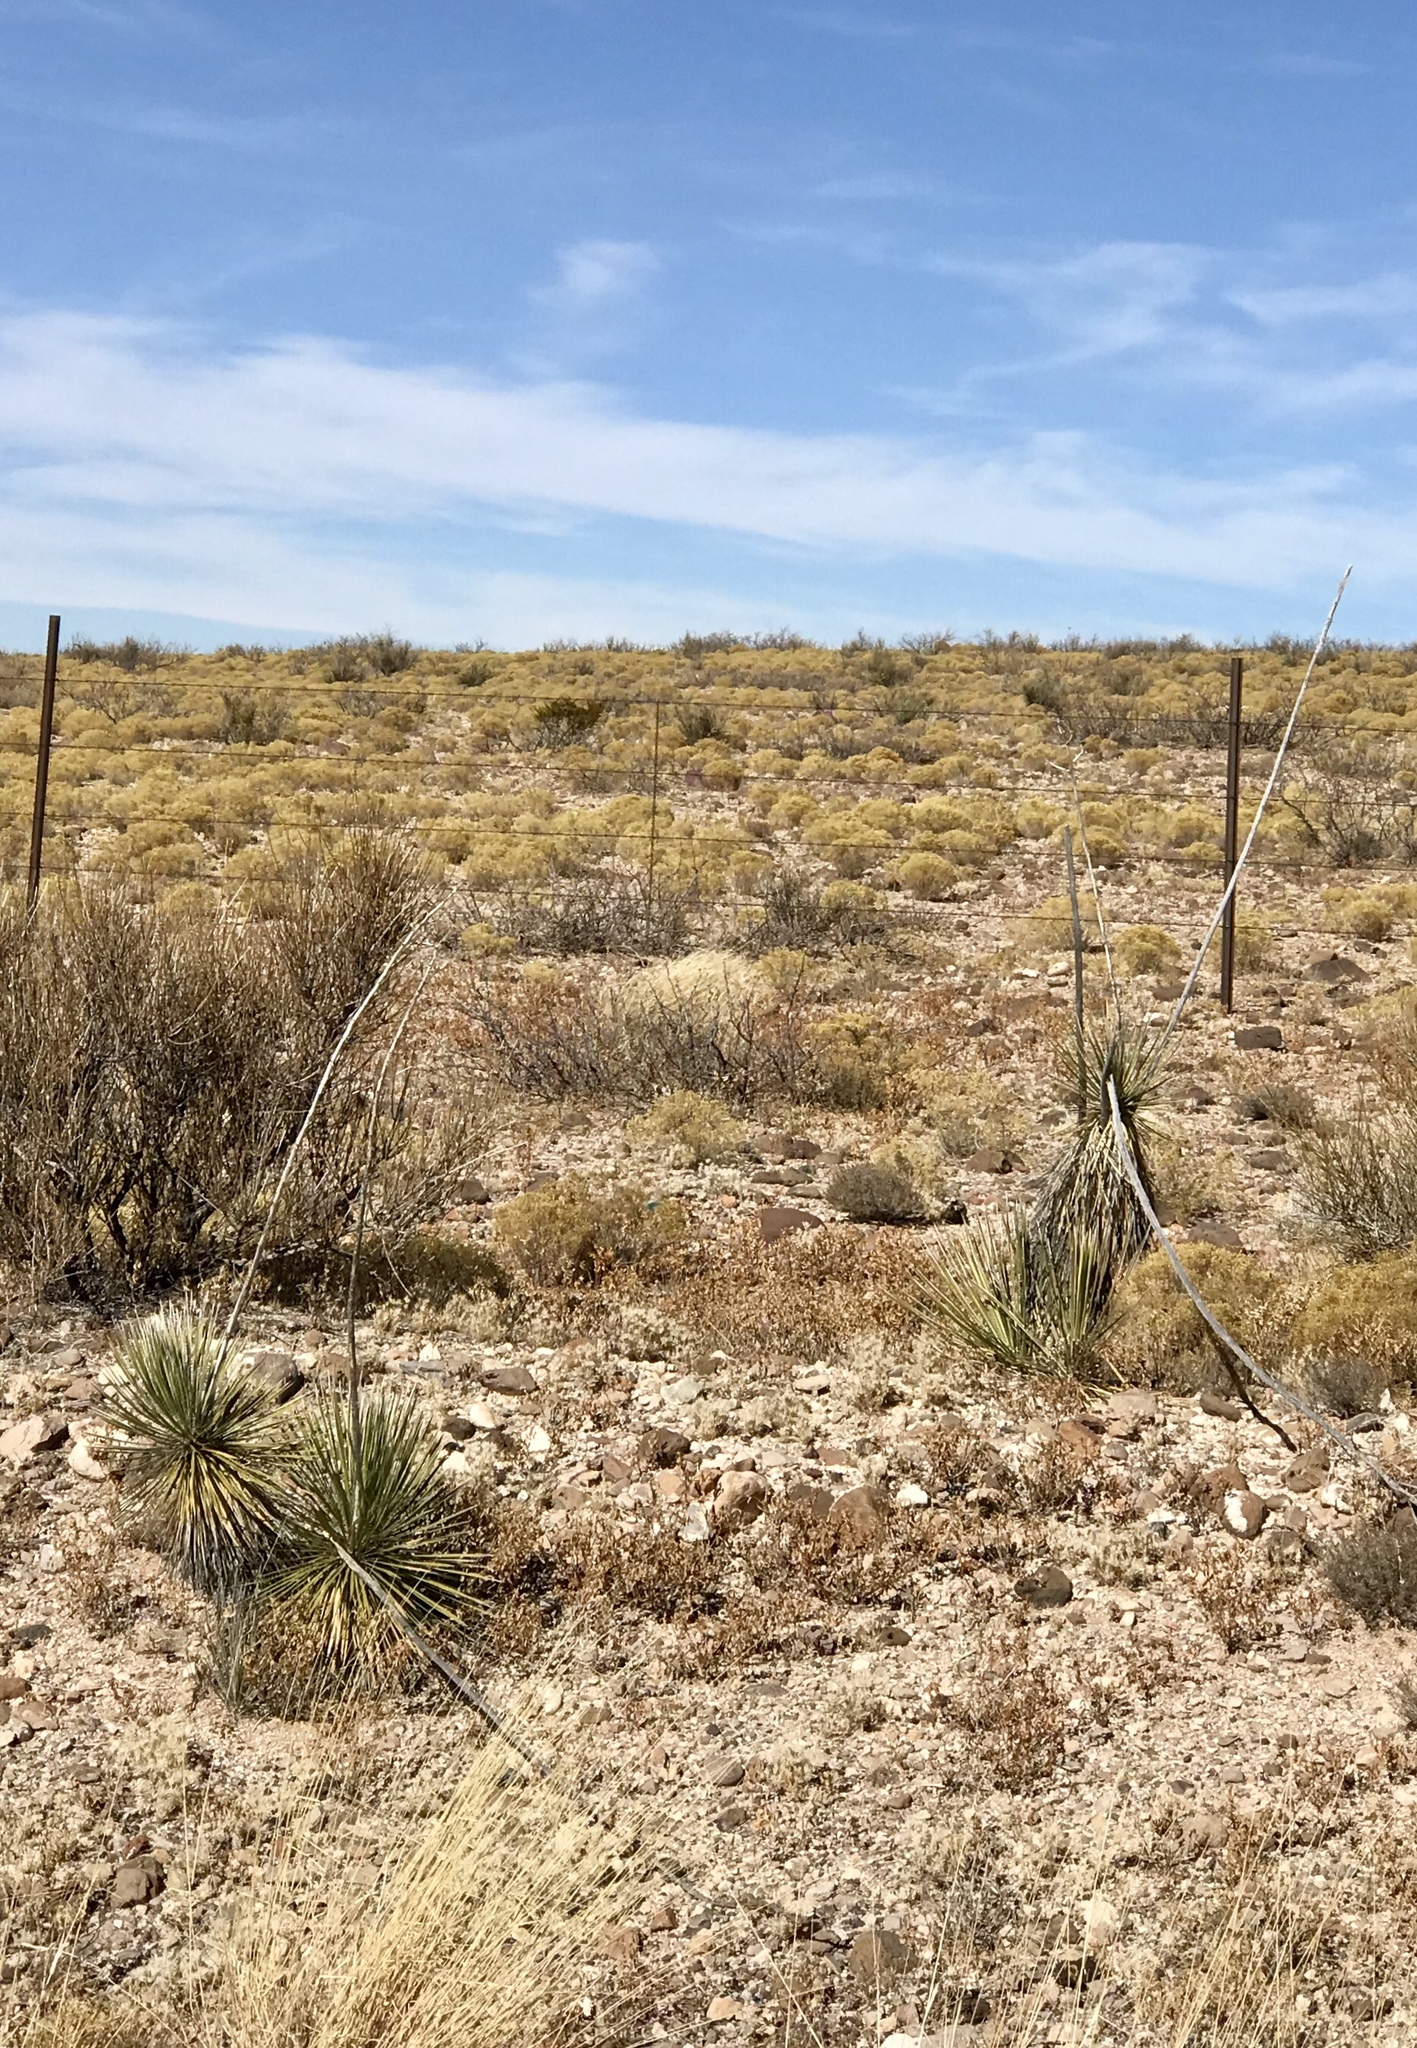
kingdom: Plantae
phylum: Tracheophyta
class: Liliopsida
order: Asparagales
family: Asparagaceae
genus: Yucca
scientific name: Yucca elata
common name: Palmella
